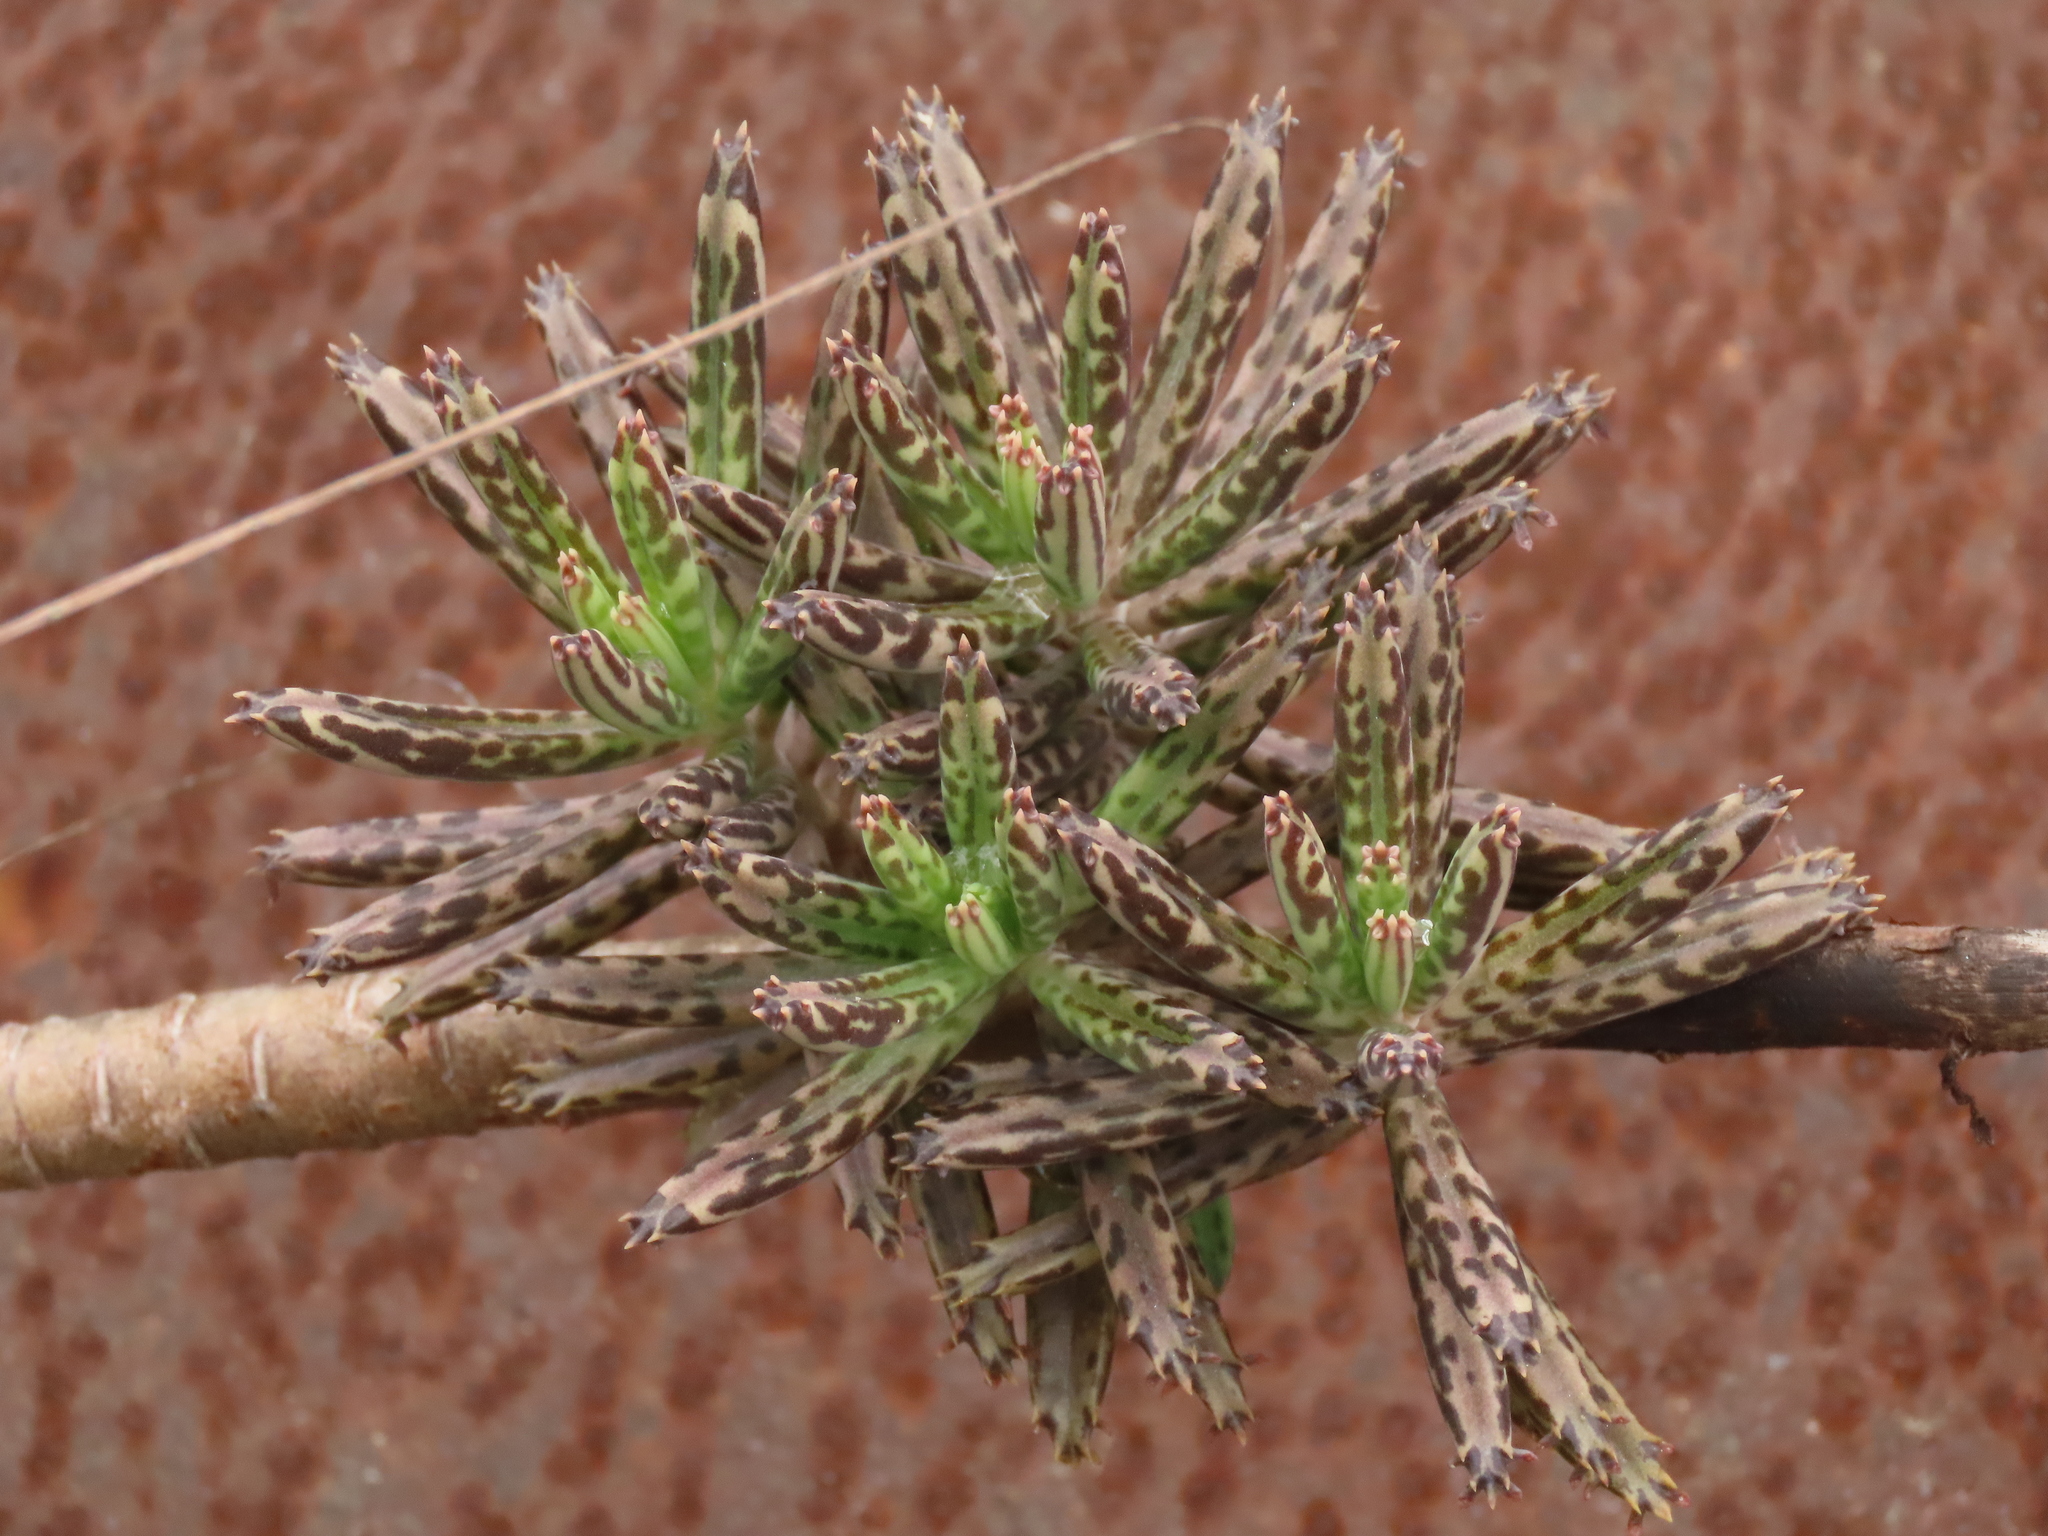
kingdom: Plantae
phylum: Tracheophyta
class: Magnoliopsida
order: Saxifragales
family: Crassulaceae
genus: Kalanchoe
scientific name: Kalanchoe delagoensis
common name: Chandelier plant
